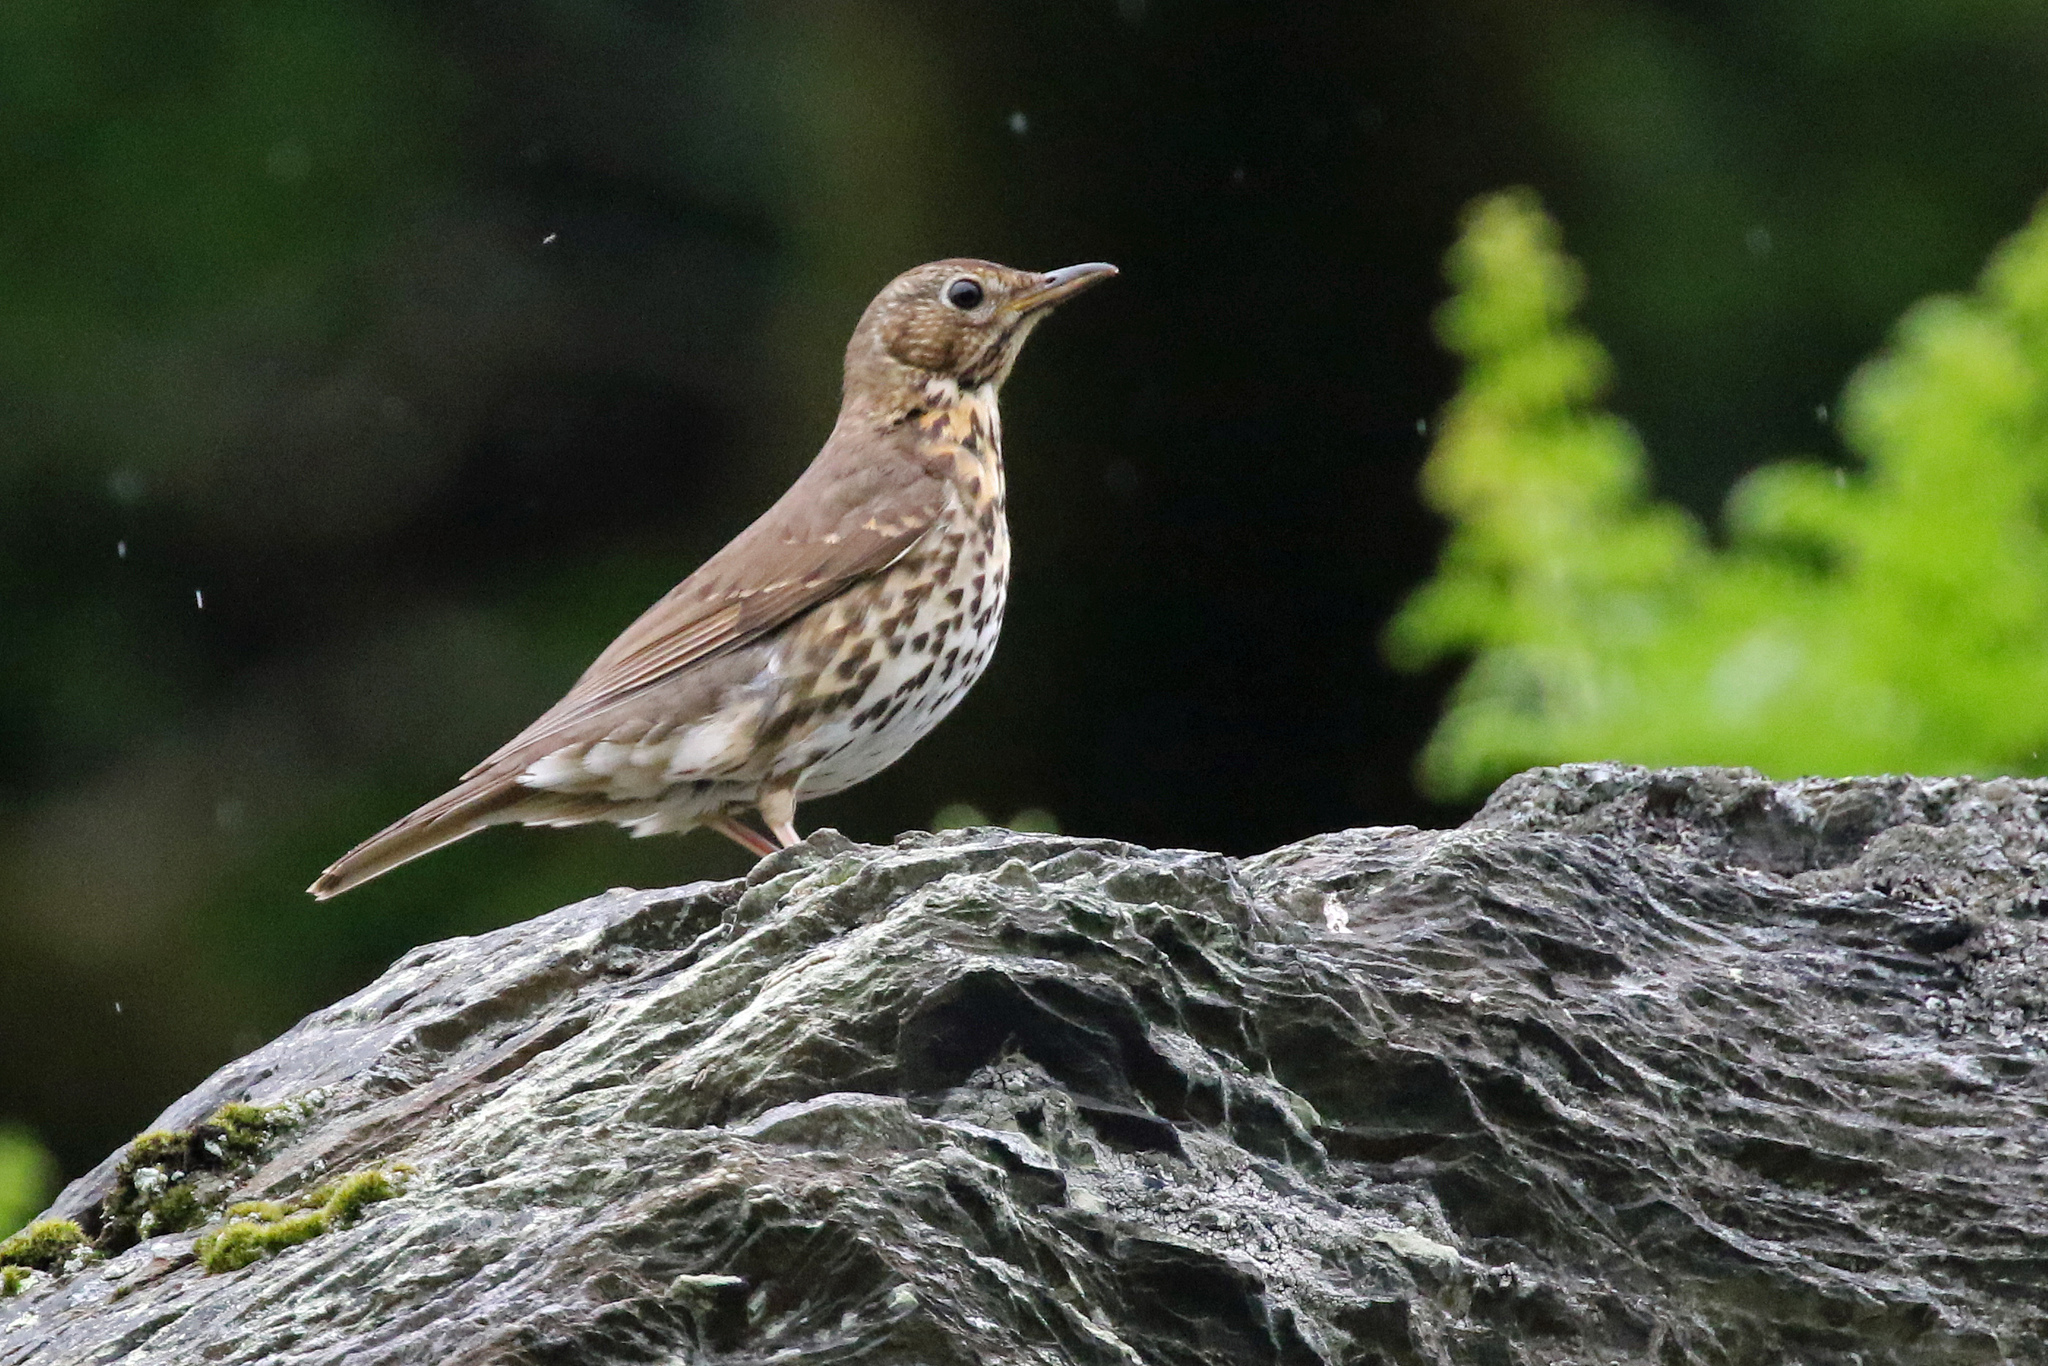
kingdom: Animalia
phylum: Chordata
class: Aves
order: Passeriformes
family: Turdidae
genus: Turdus
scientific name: Turdus philomelos
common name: Song thrush
